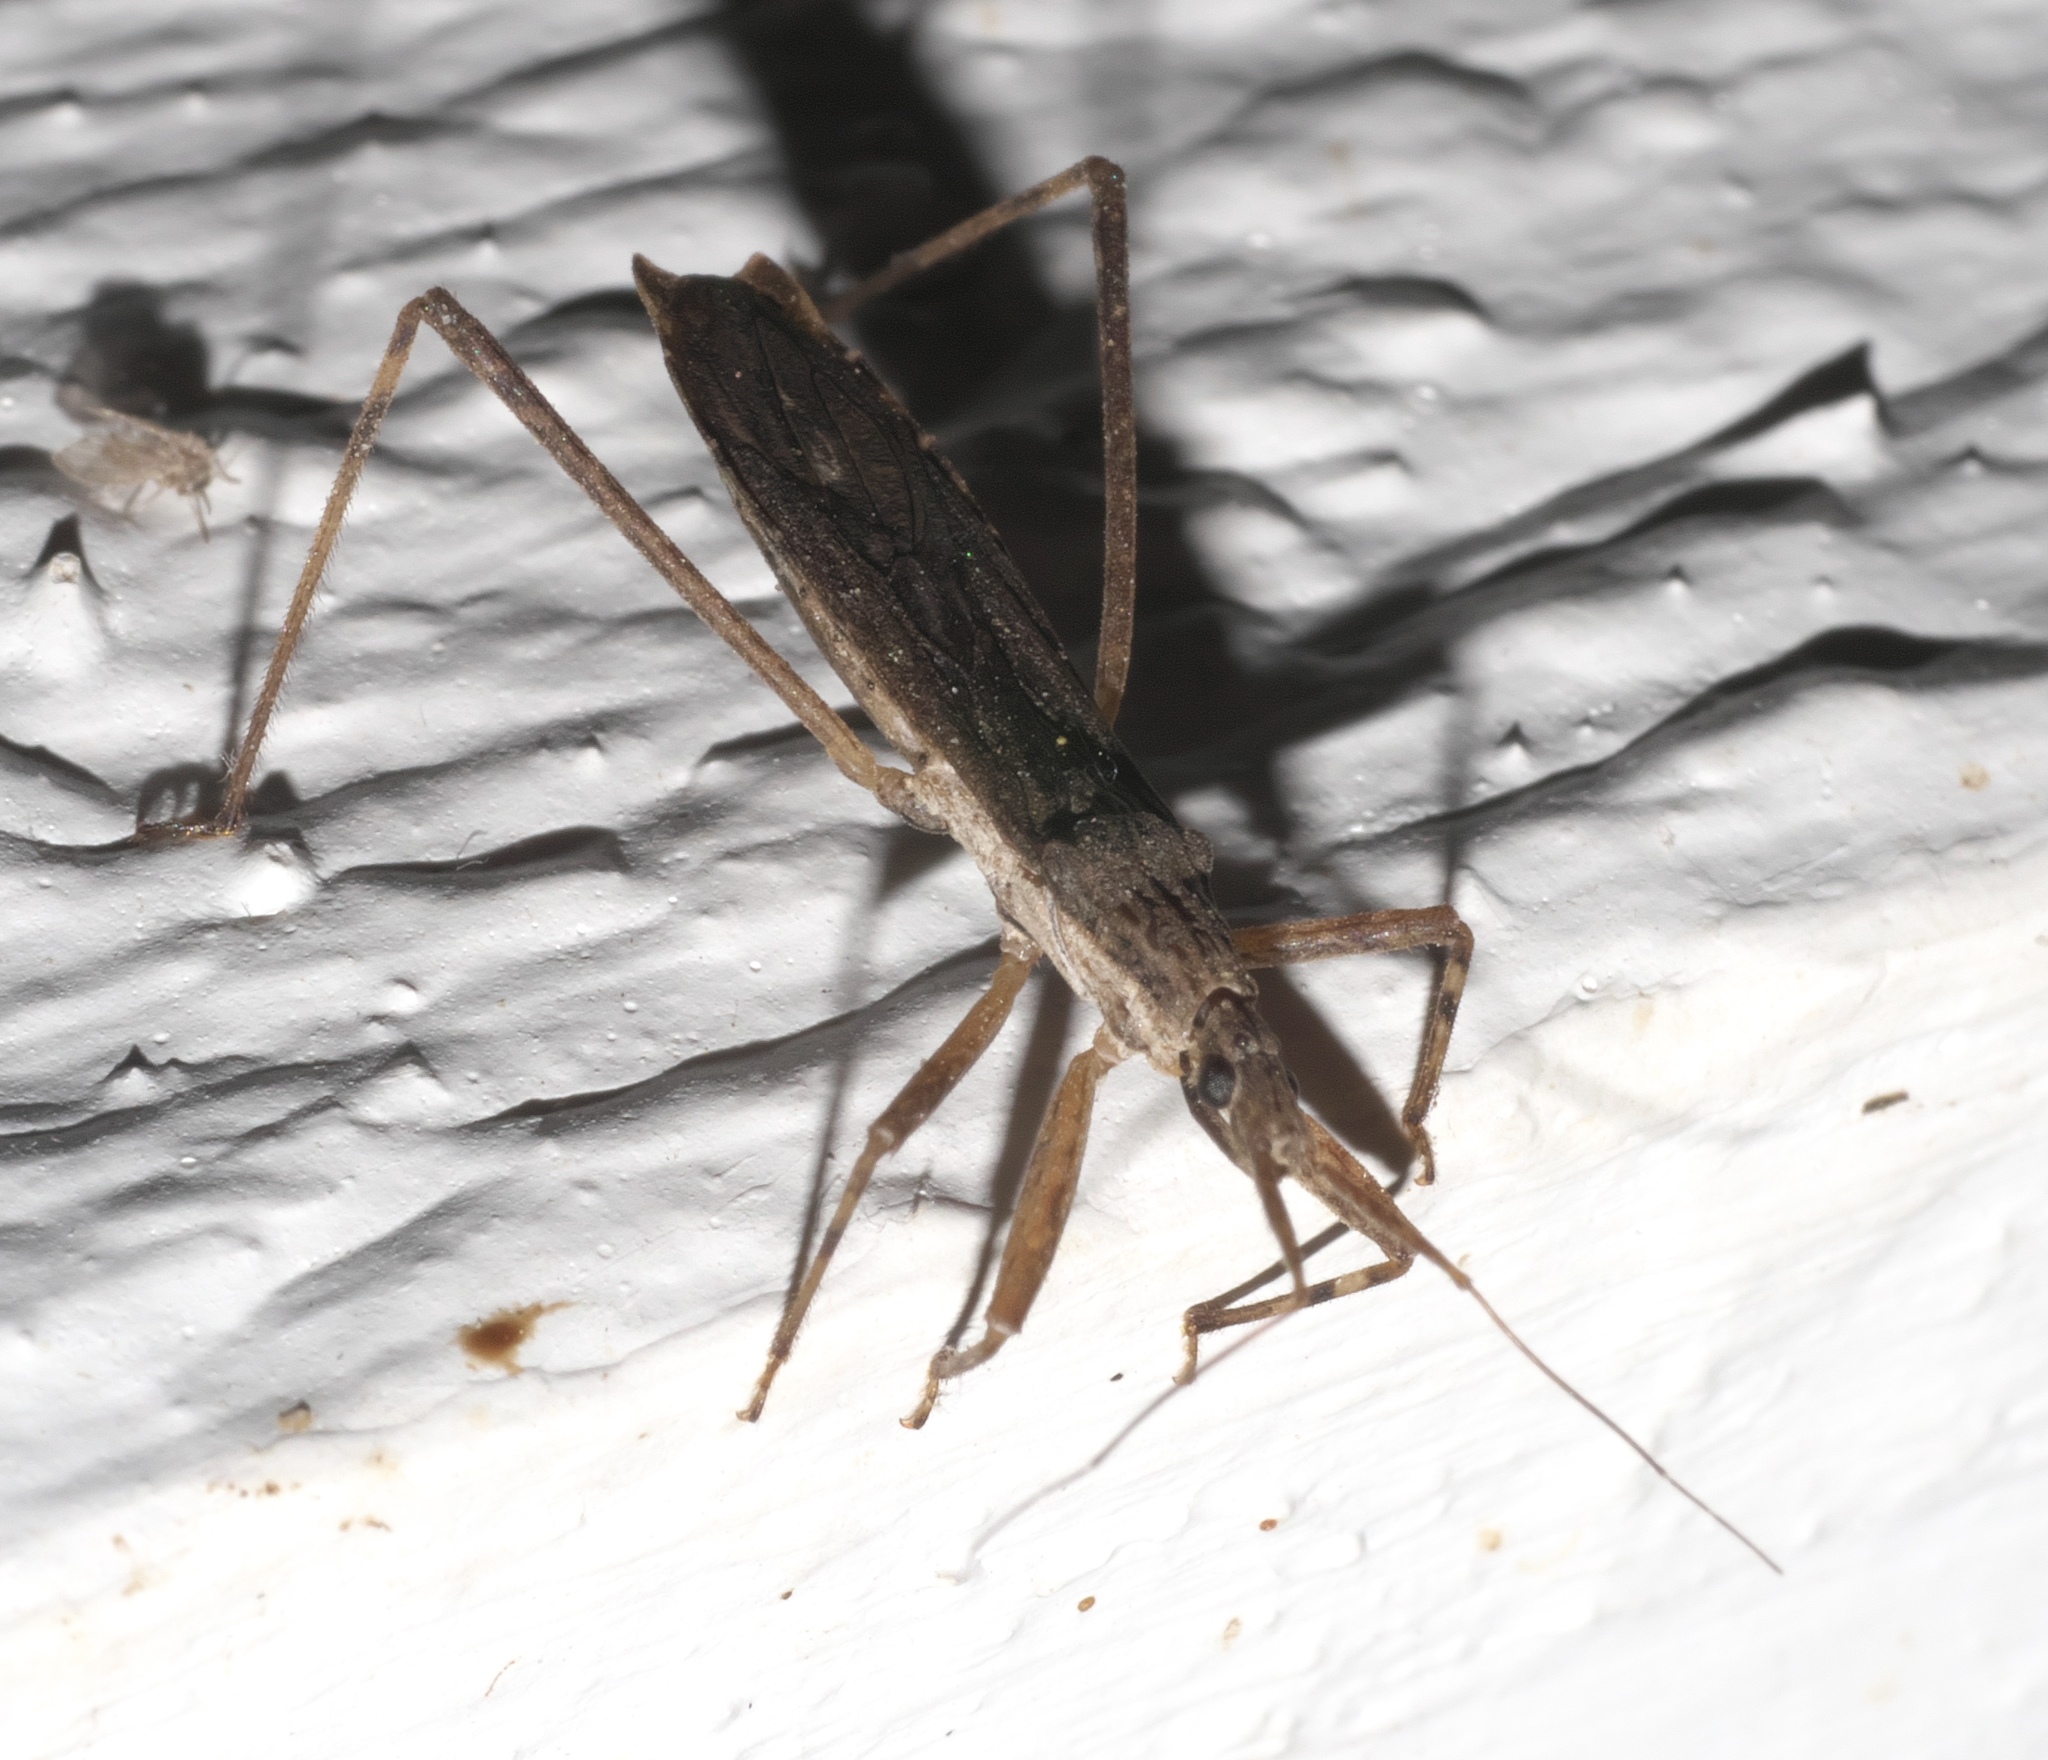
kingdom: Animalia
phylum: Arthropoda
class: Insecta
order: Hemiptera
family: Reduviidae
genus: Pygolampis
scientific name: Pygolampis pectoralis
